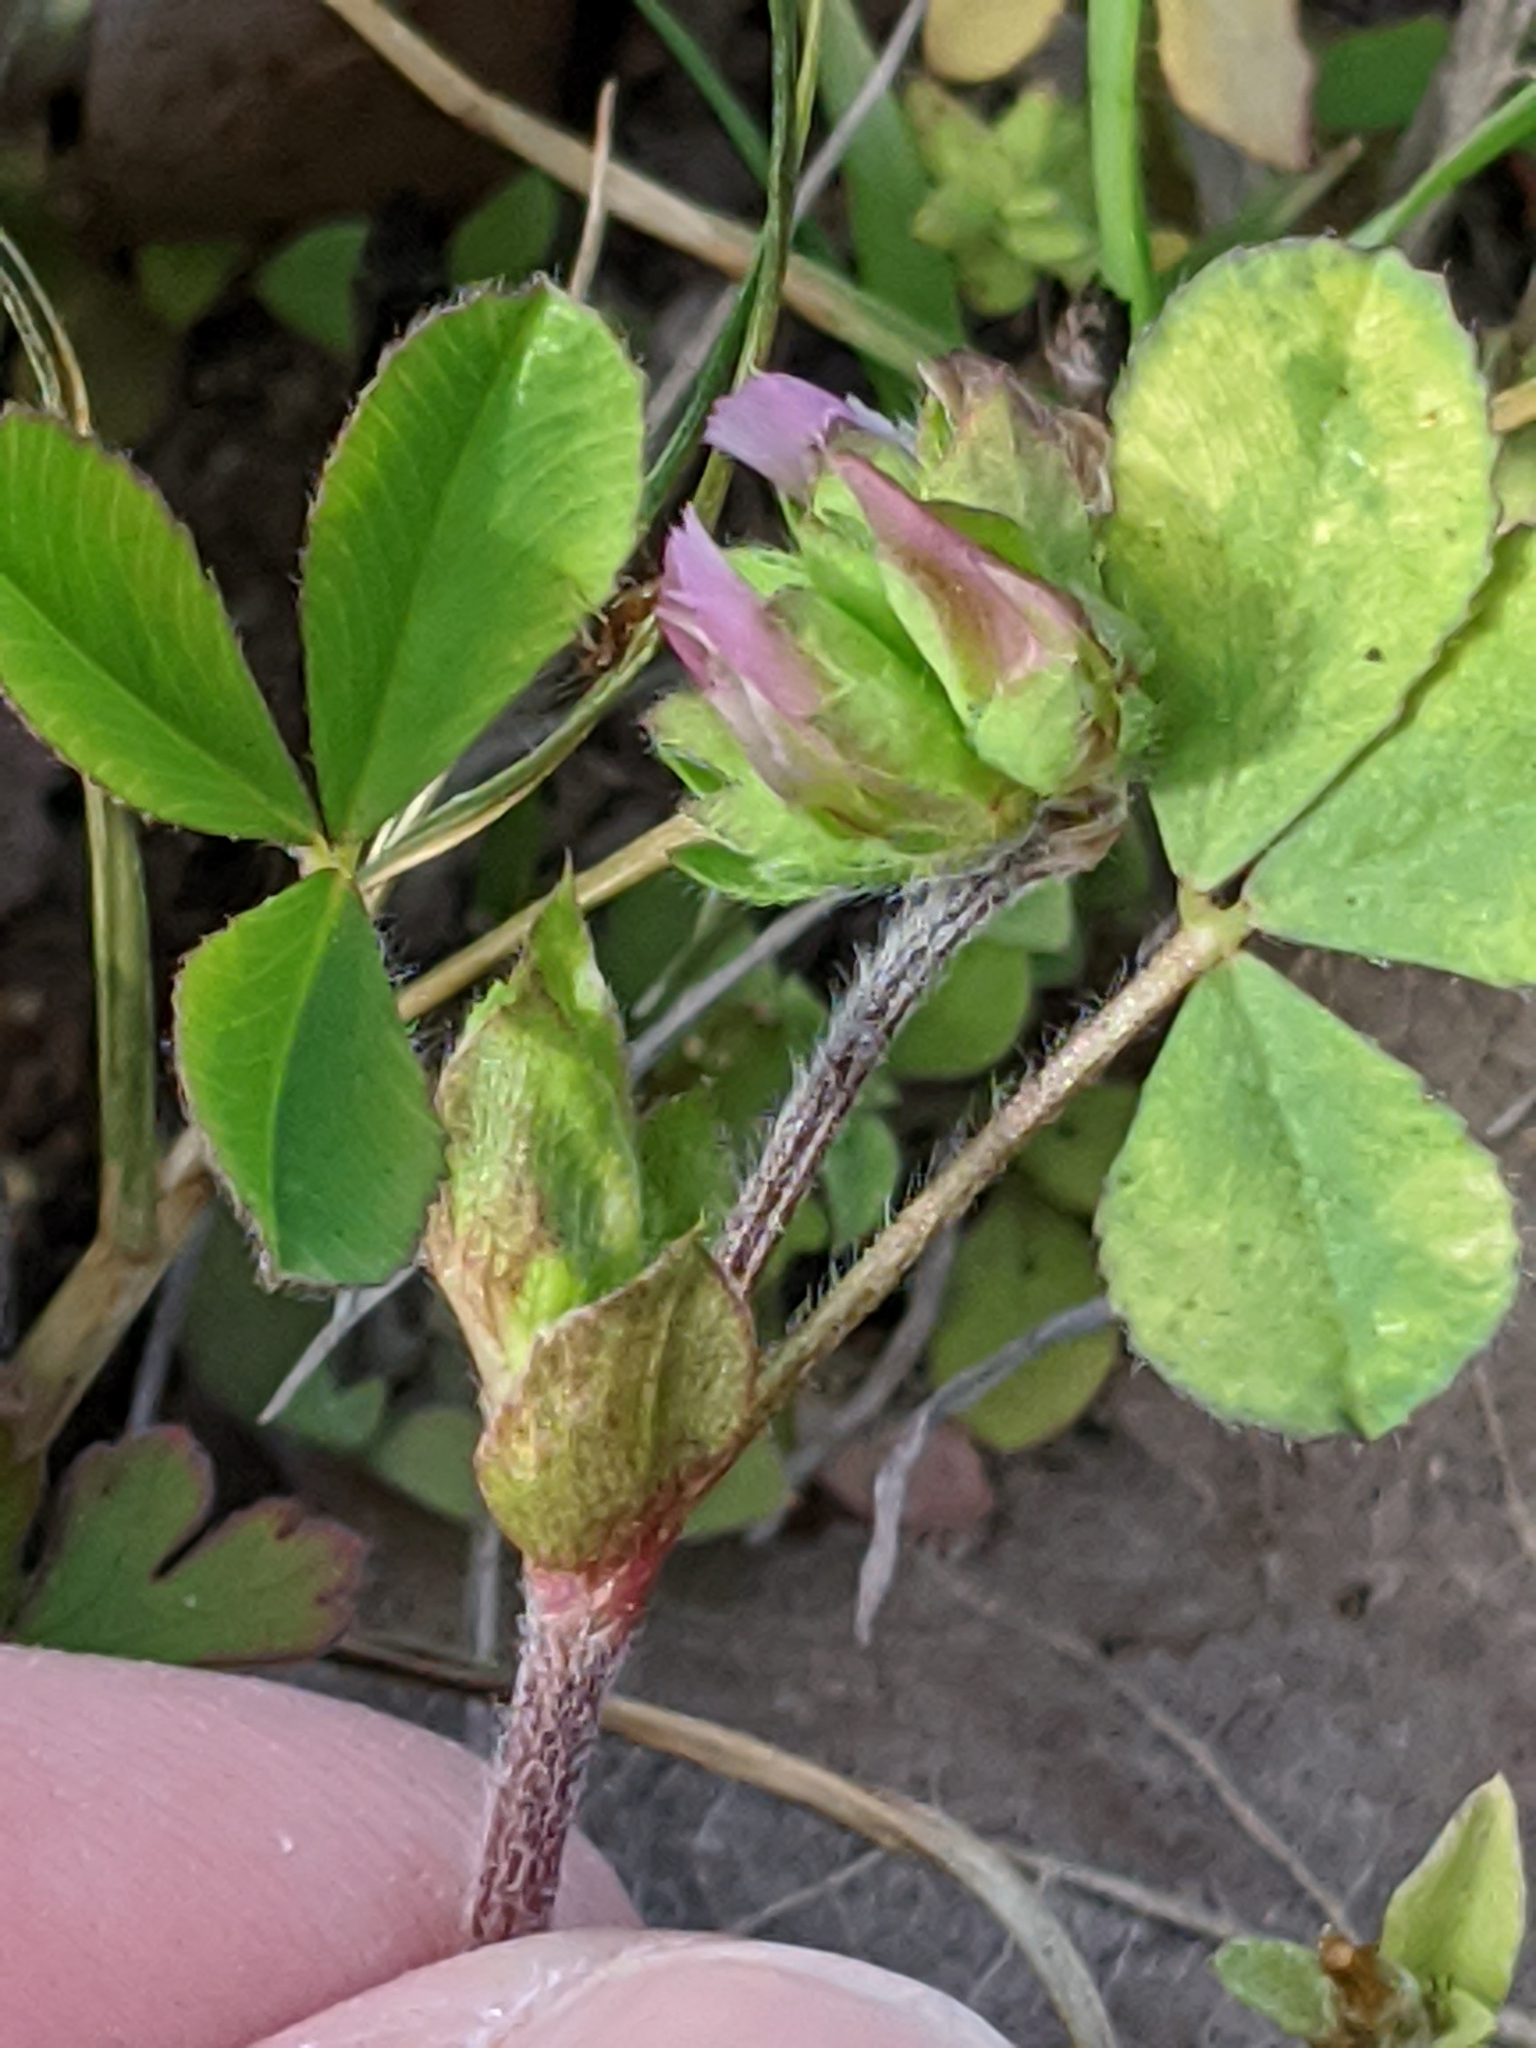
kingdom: Plantae
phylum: Tracheophyta
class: Magnoliopsida
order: Fabales
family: Fabaceae
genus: Trifolium
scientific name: Trifolium bejariense
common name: Bejar clover
